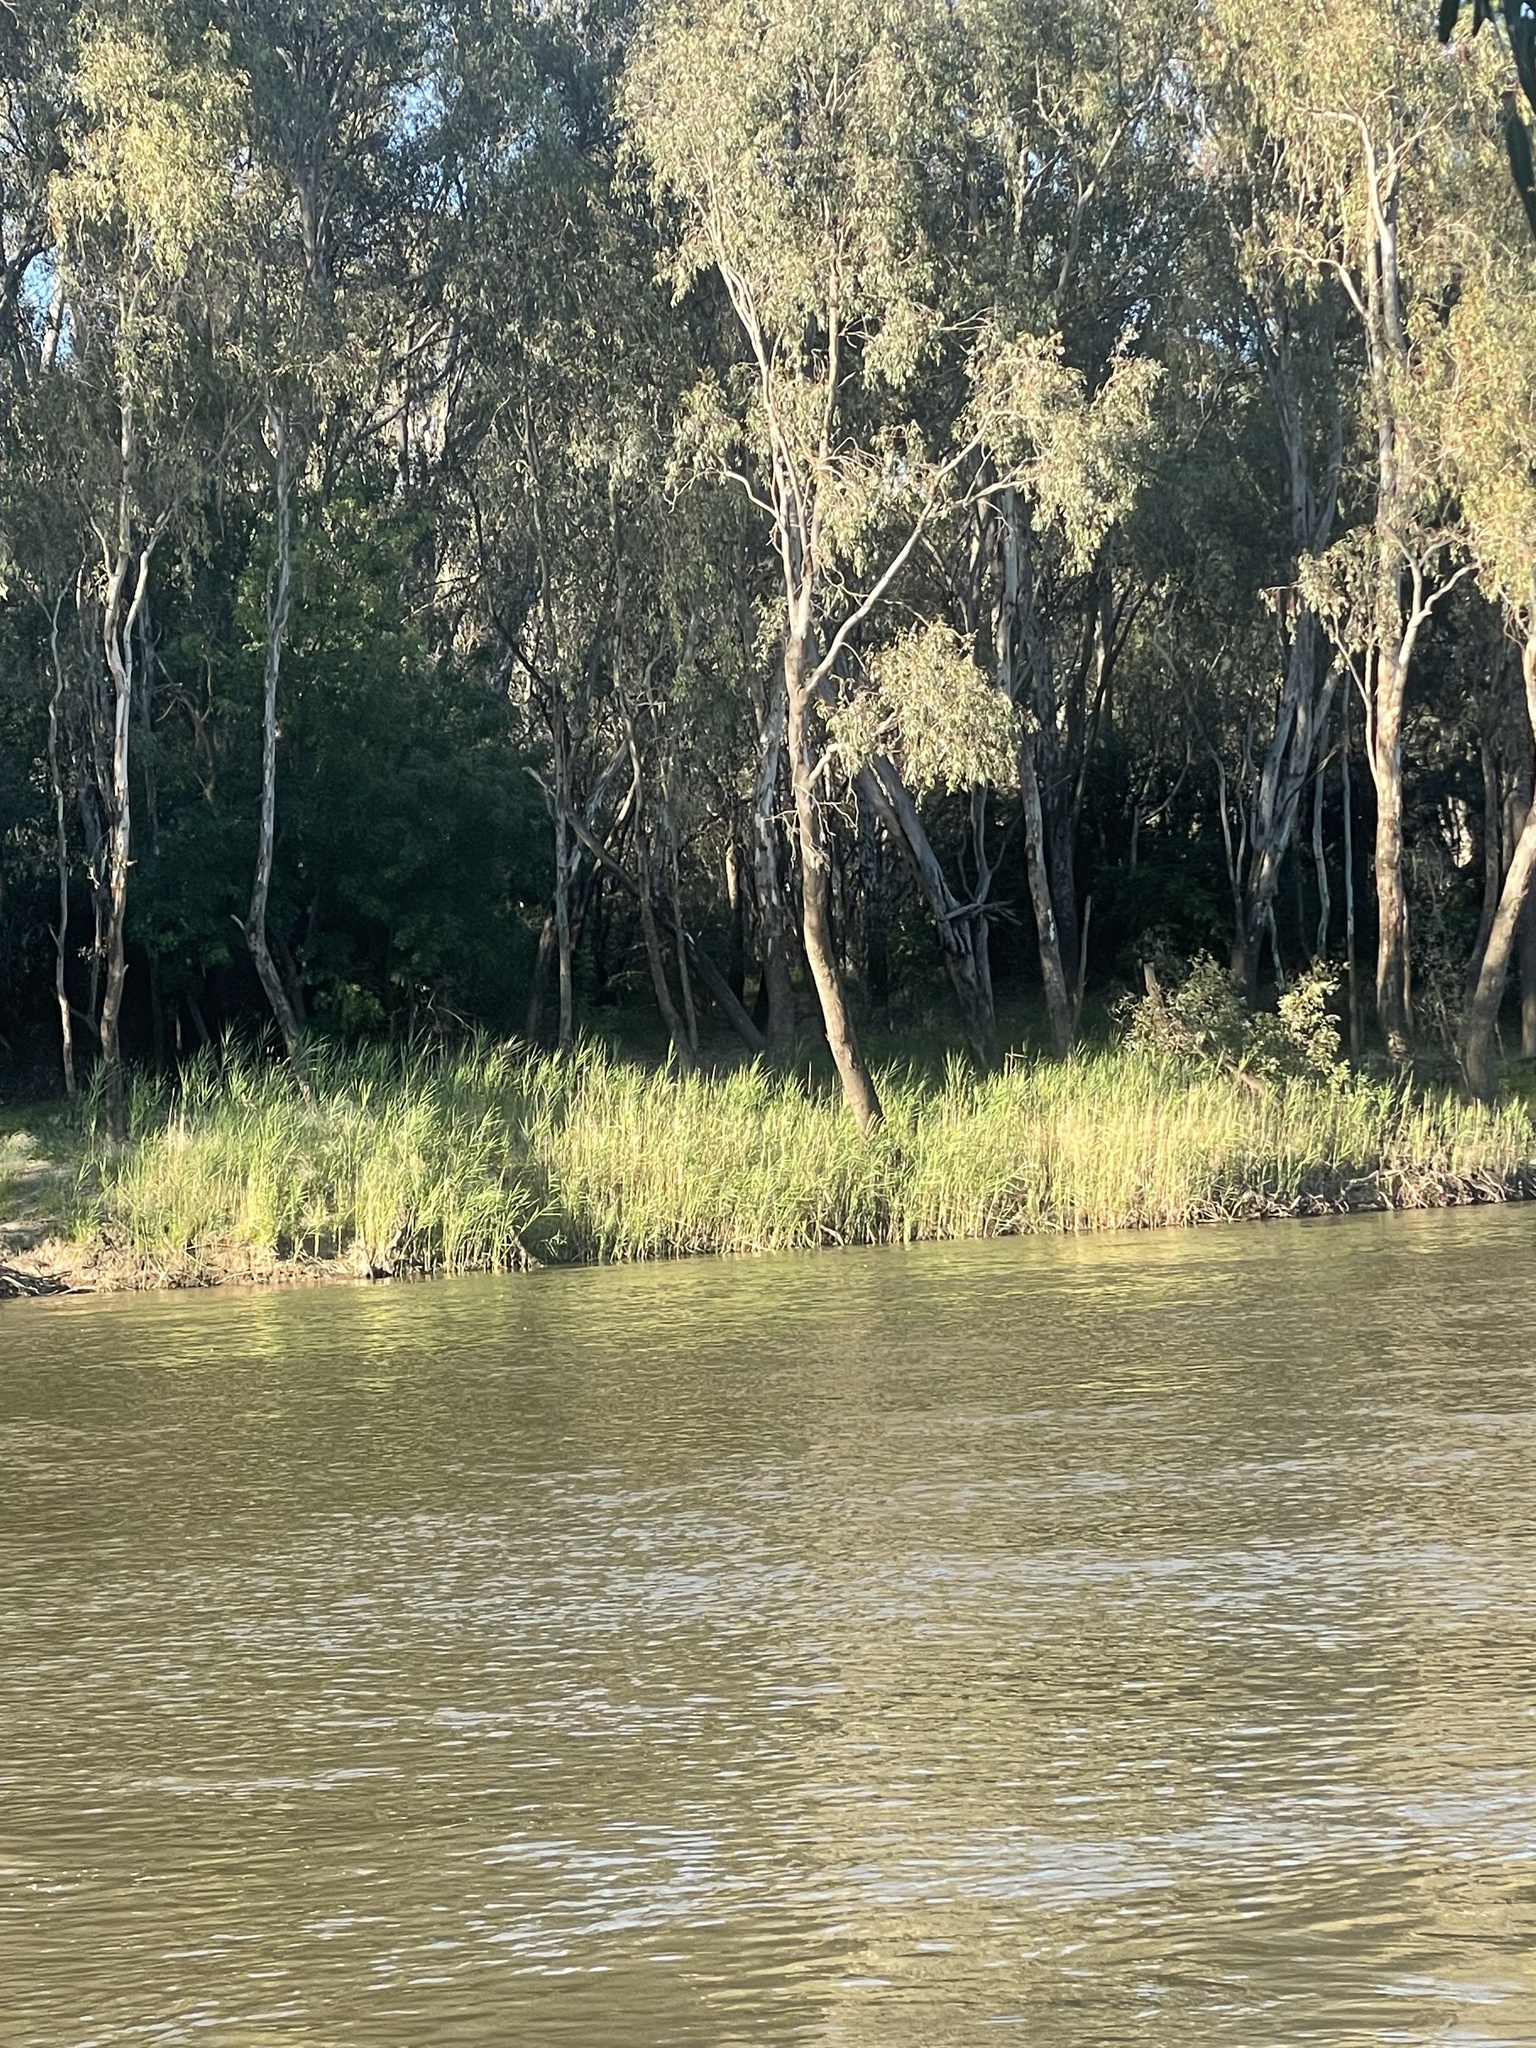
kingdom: Plantae
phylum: Tracheophyta
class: Liliopsida
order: Poales
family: Poaceae
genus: Phragmites
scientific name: Phragmites australis
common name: Common reed
